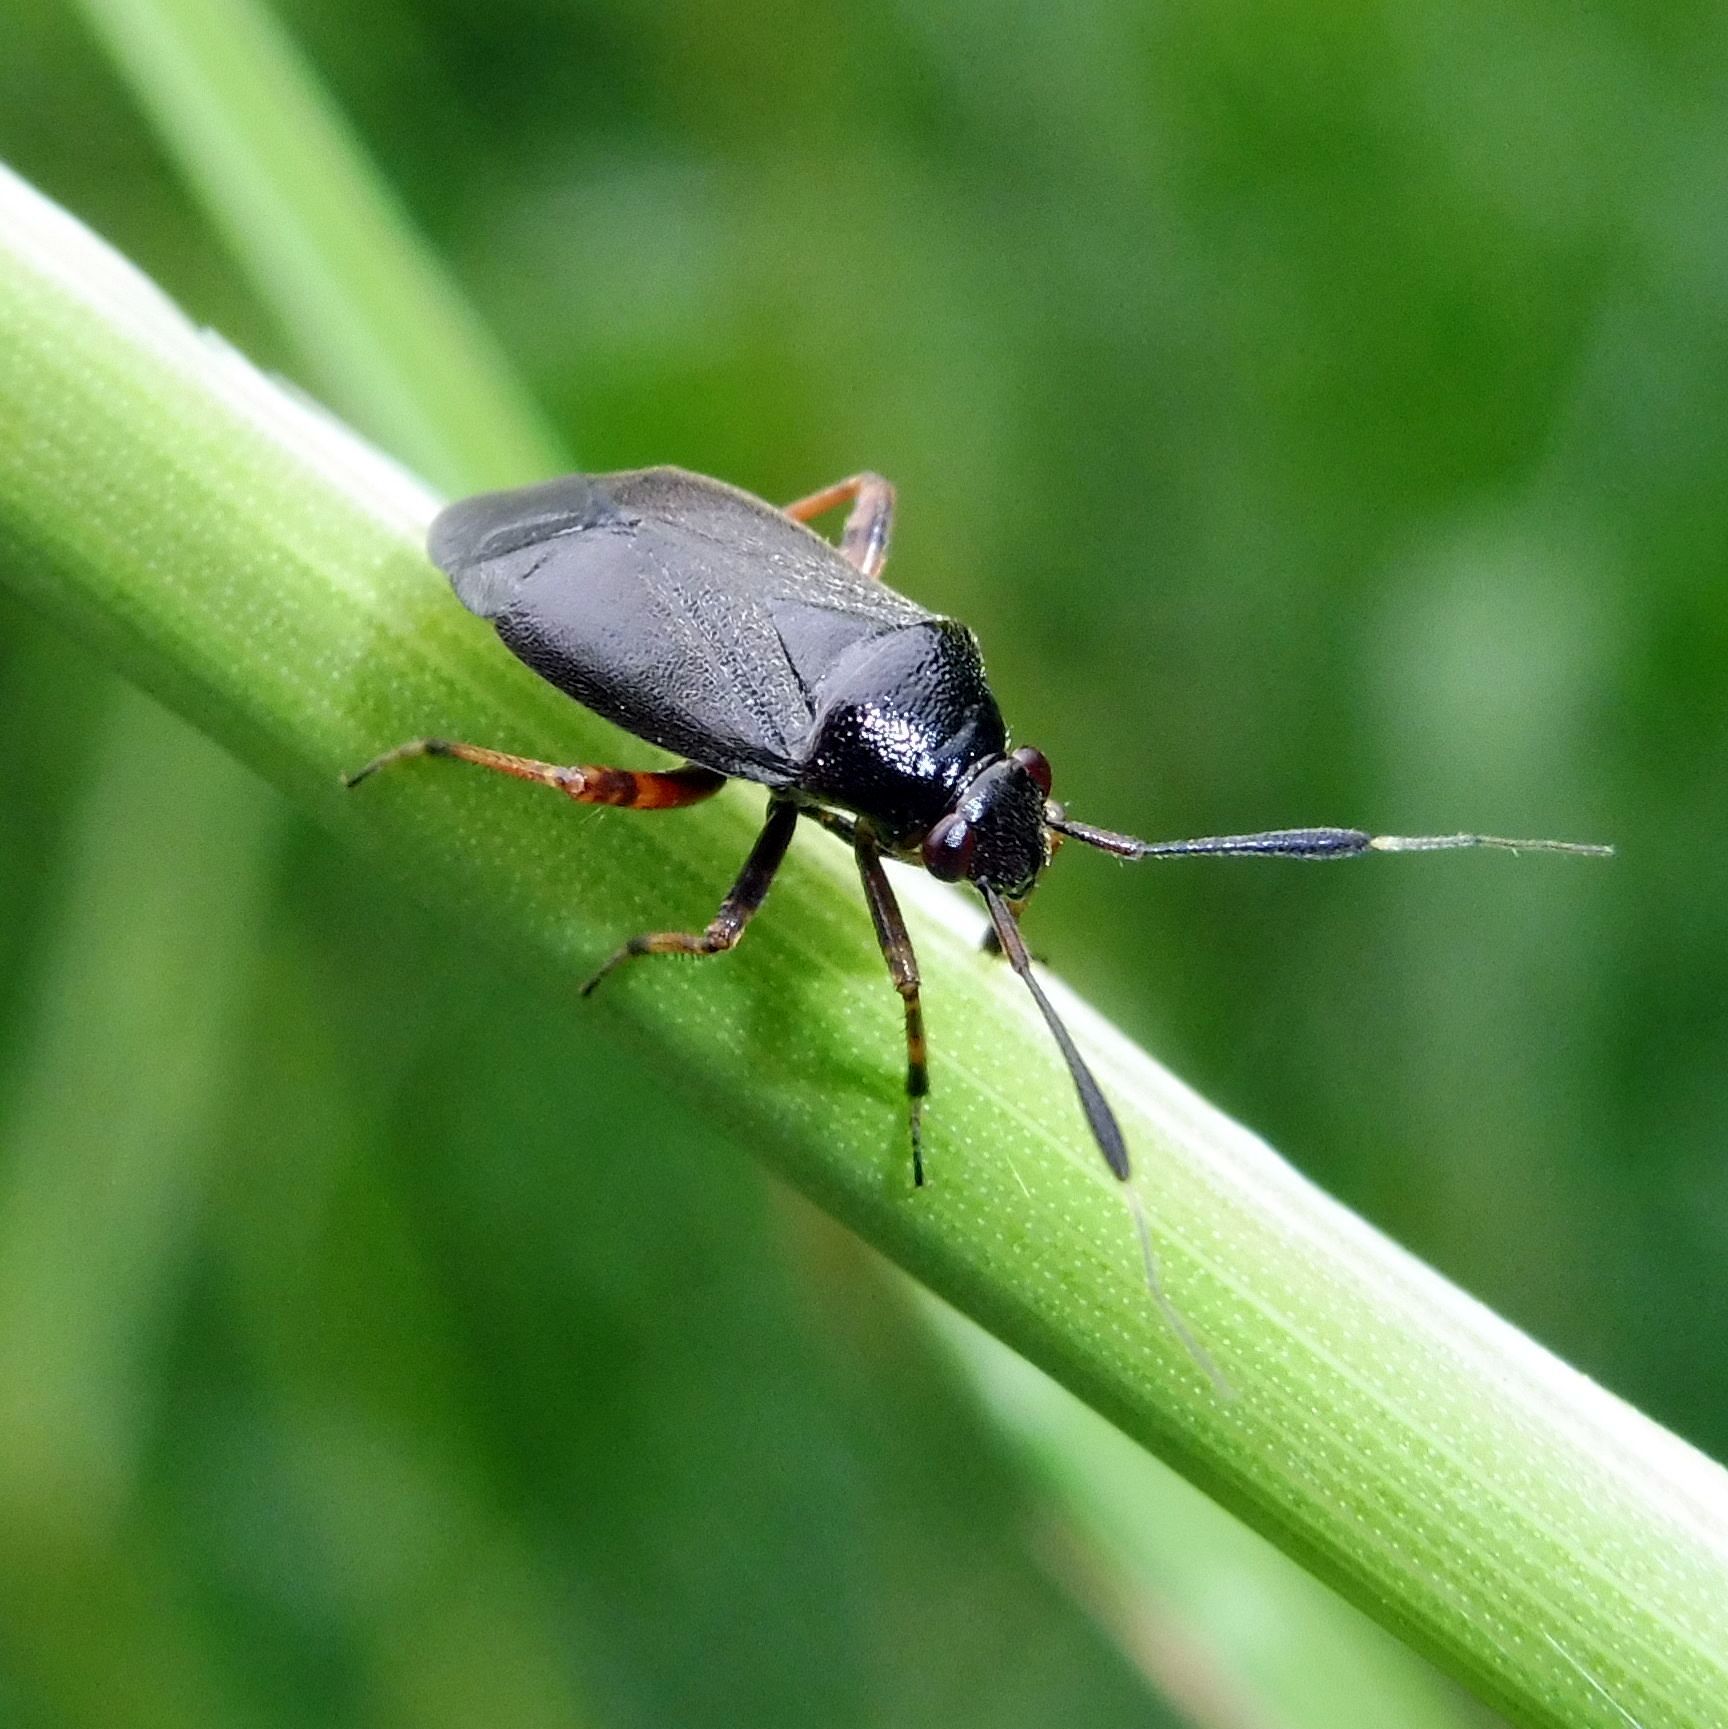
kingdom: Animalia
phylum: Arthropoda
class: Insecta
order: Hemiptera
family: Miridae
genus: Capsus
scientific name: Capsus ater
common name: Black plant bug
